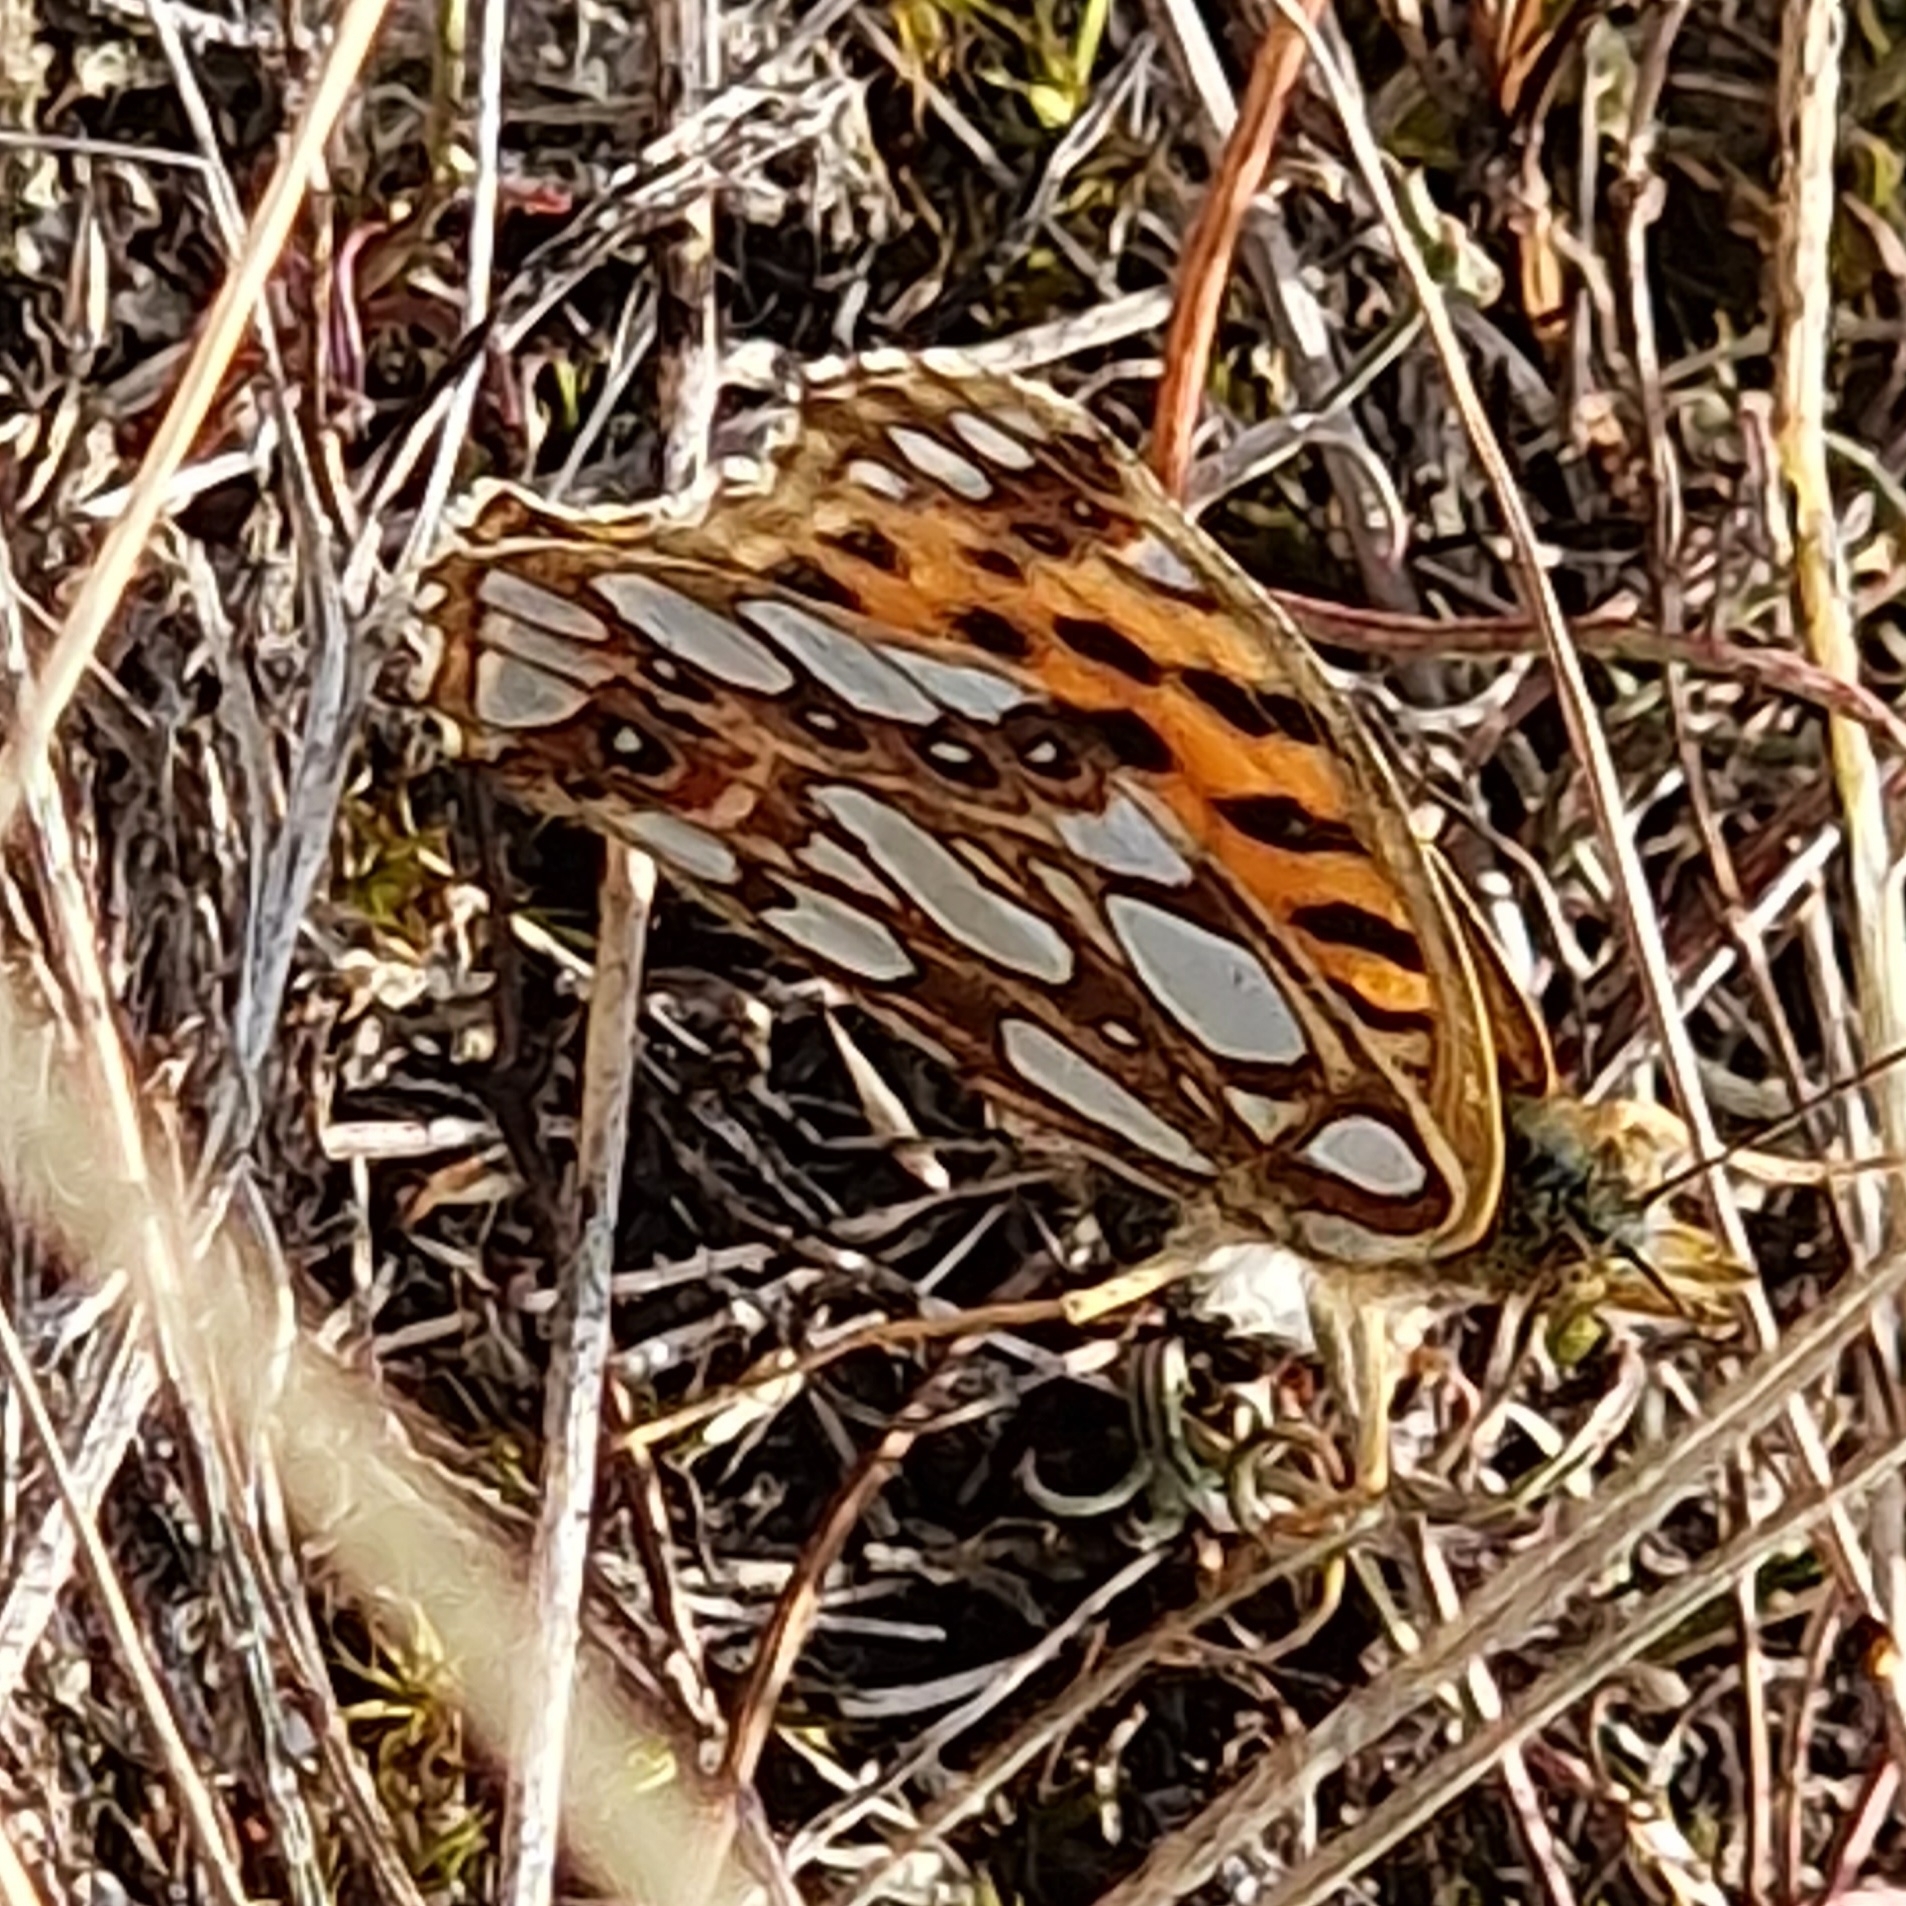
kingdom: Animalia
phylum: Arthropoda
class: Insecta
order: Lepidoptera
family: Nymphalidae
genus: Issoria
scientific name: Issoria lathonia
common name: Queen of spain fritillary
